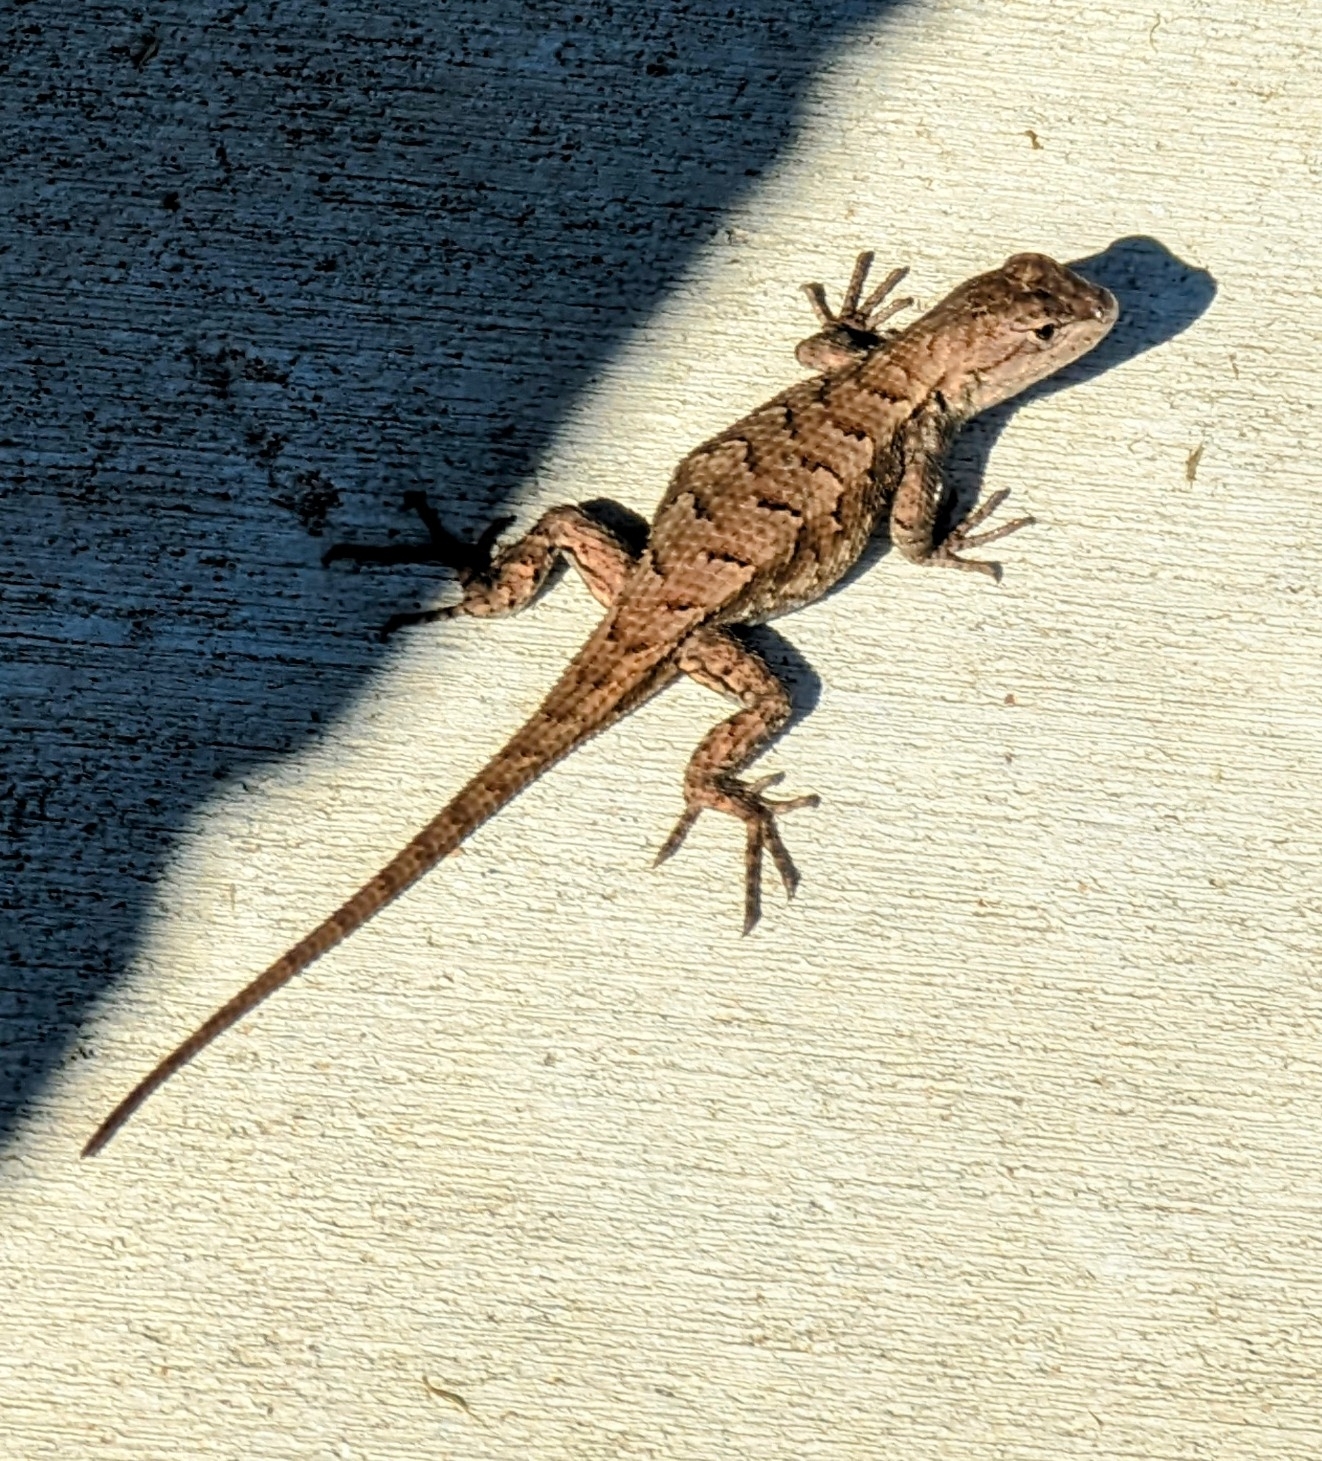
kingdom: Animalia
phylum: Chordata
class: Squamata
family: Phrynosomatidae
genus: Sceloporus
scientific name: Sceloporus consobrinus
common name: Southern prairie lizard
